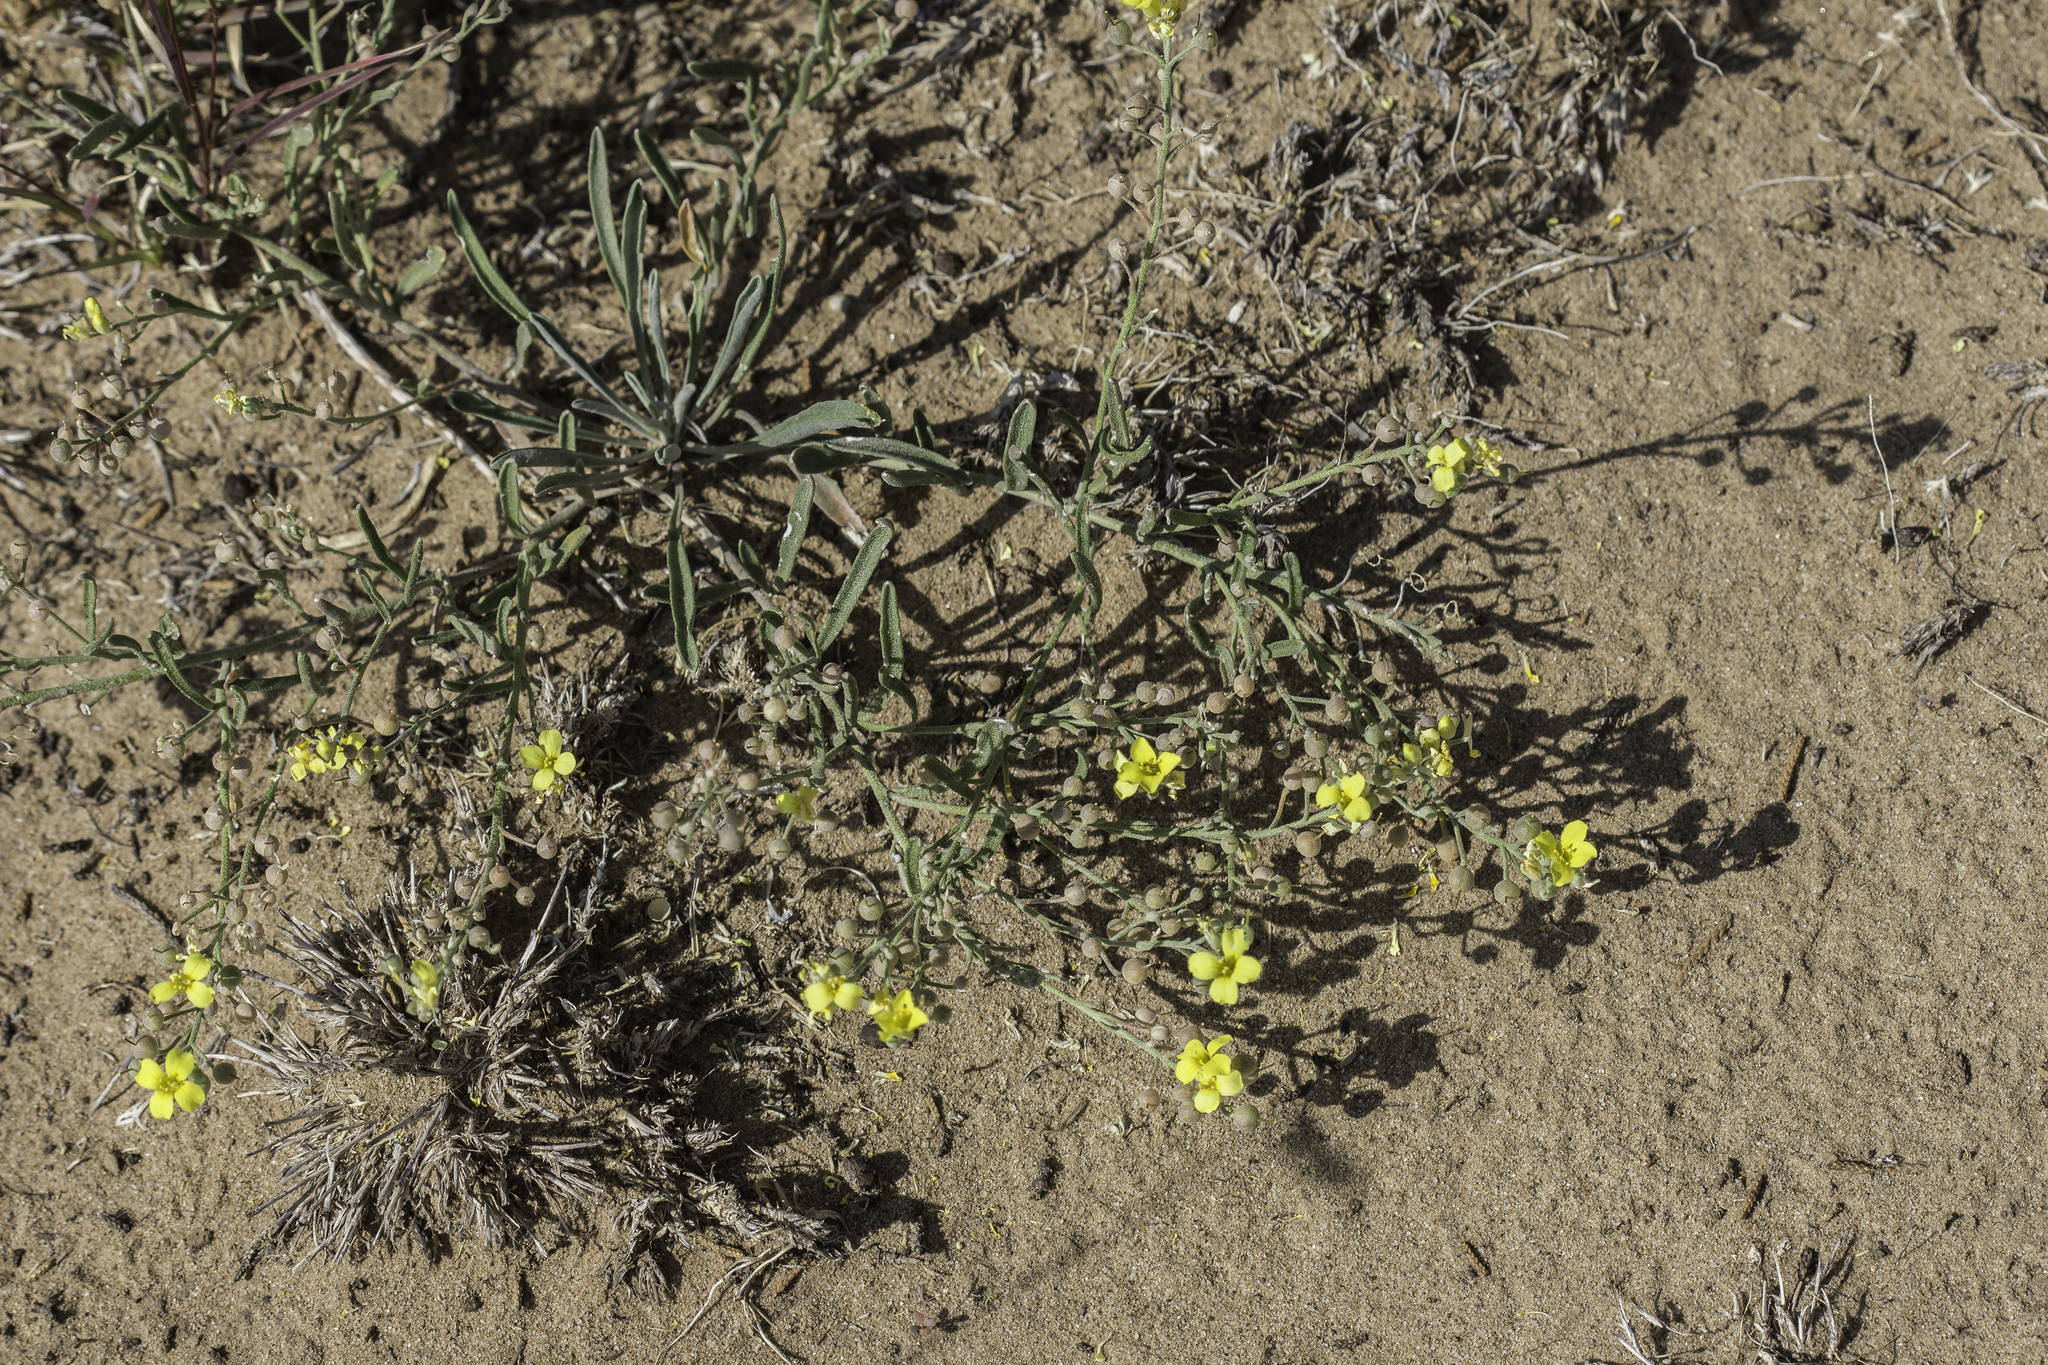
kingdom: Plantae
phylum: Tracheophyta
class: Magnoliopsida
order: Brassicales
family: Brassicaceae
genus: Physaria
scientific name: Physaria rectipes
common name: Colorado bladderpod
